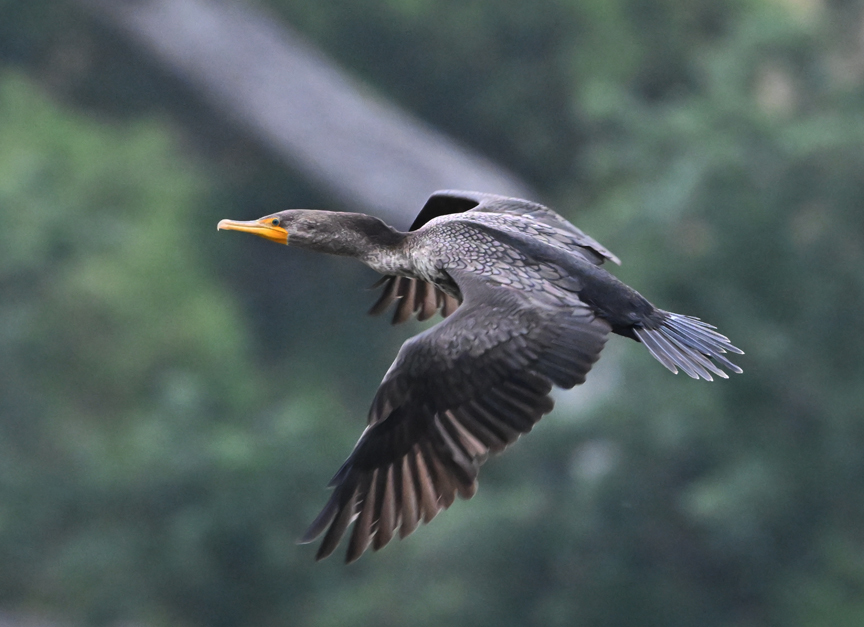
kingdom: Animalia
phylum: Chordata
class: Aves
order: Suliformes
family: Phalacrocoracidae
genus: Phalacrocorax
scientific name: Phalacrocorax auritus
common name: Double-crested cormorant
